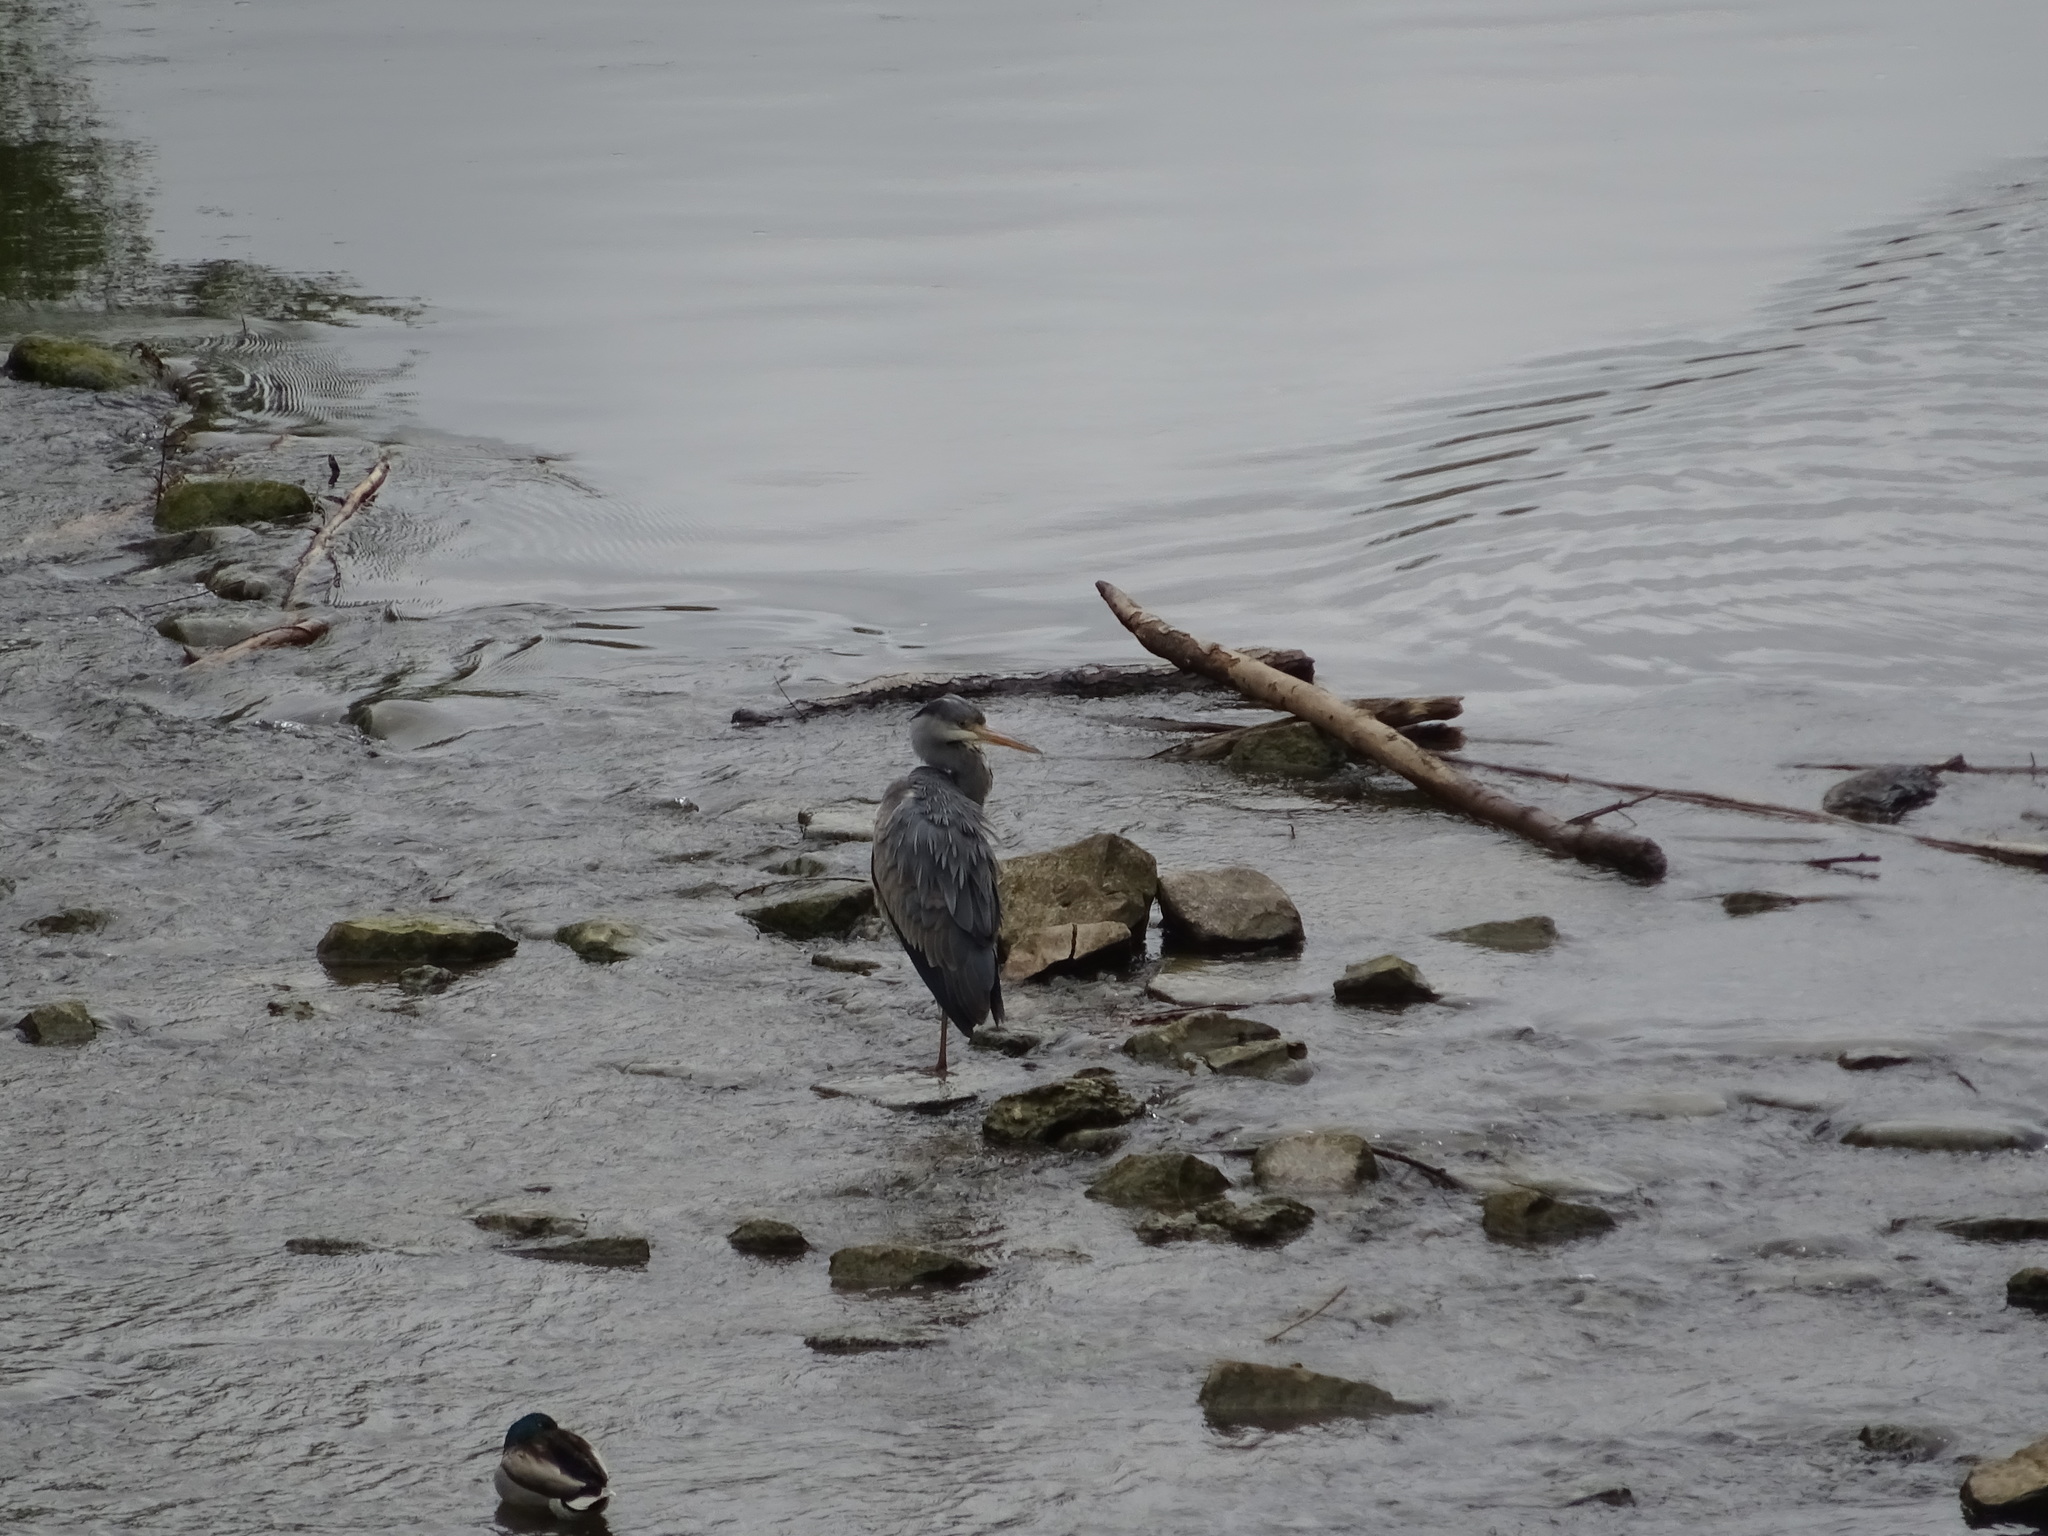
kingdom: Animalia
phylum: Chordata
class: Aves
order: Pelecaniformes
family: Ardeidae
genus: Ardea
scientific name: Ardea cinerea
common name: Grey heron
